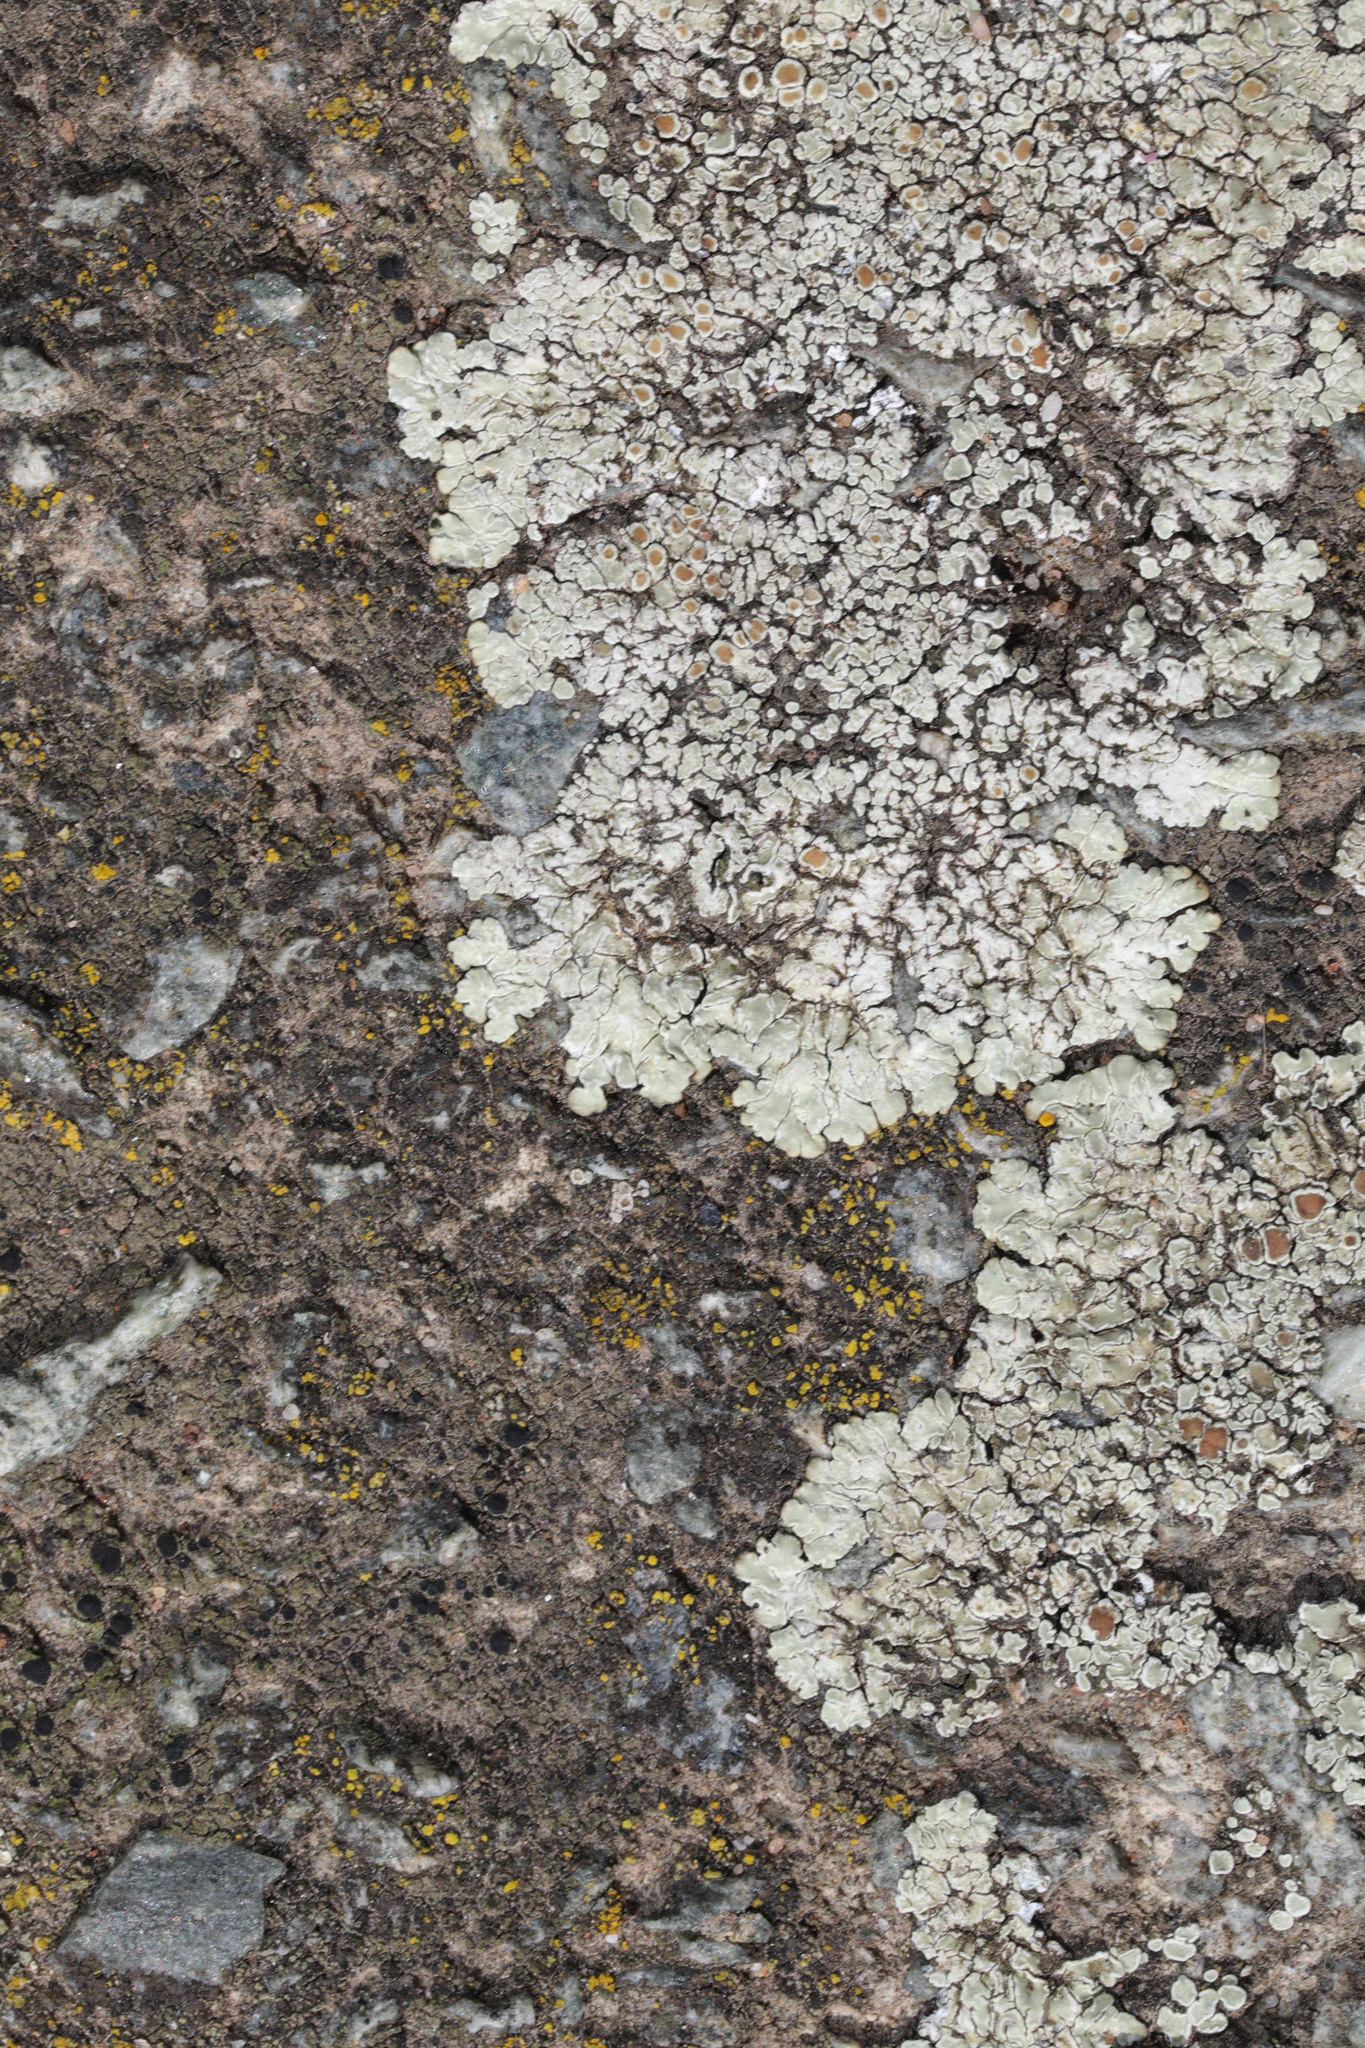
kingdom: Fungi
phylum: Ascomycota
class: Lecanoromycetes
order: Lecanorales
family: Lecanoraceae
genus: Protoparmeliopsis
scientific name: Protoparmeliopsis muralis
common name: Stonewall rim lichen
